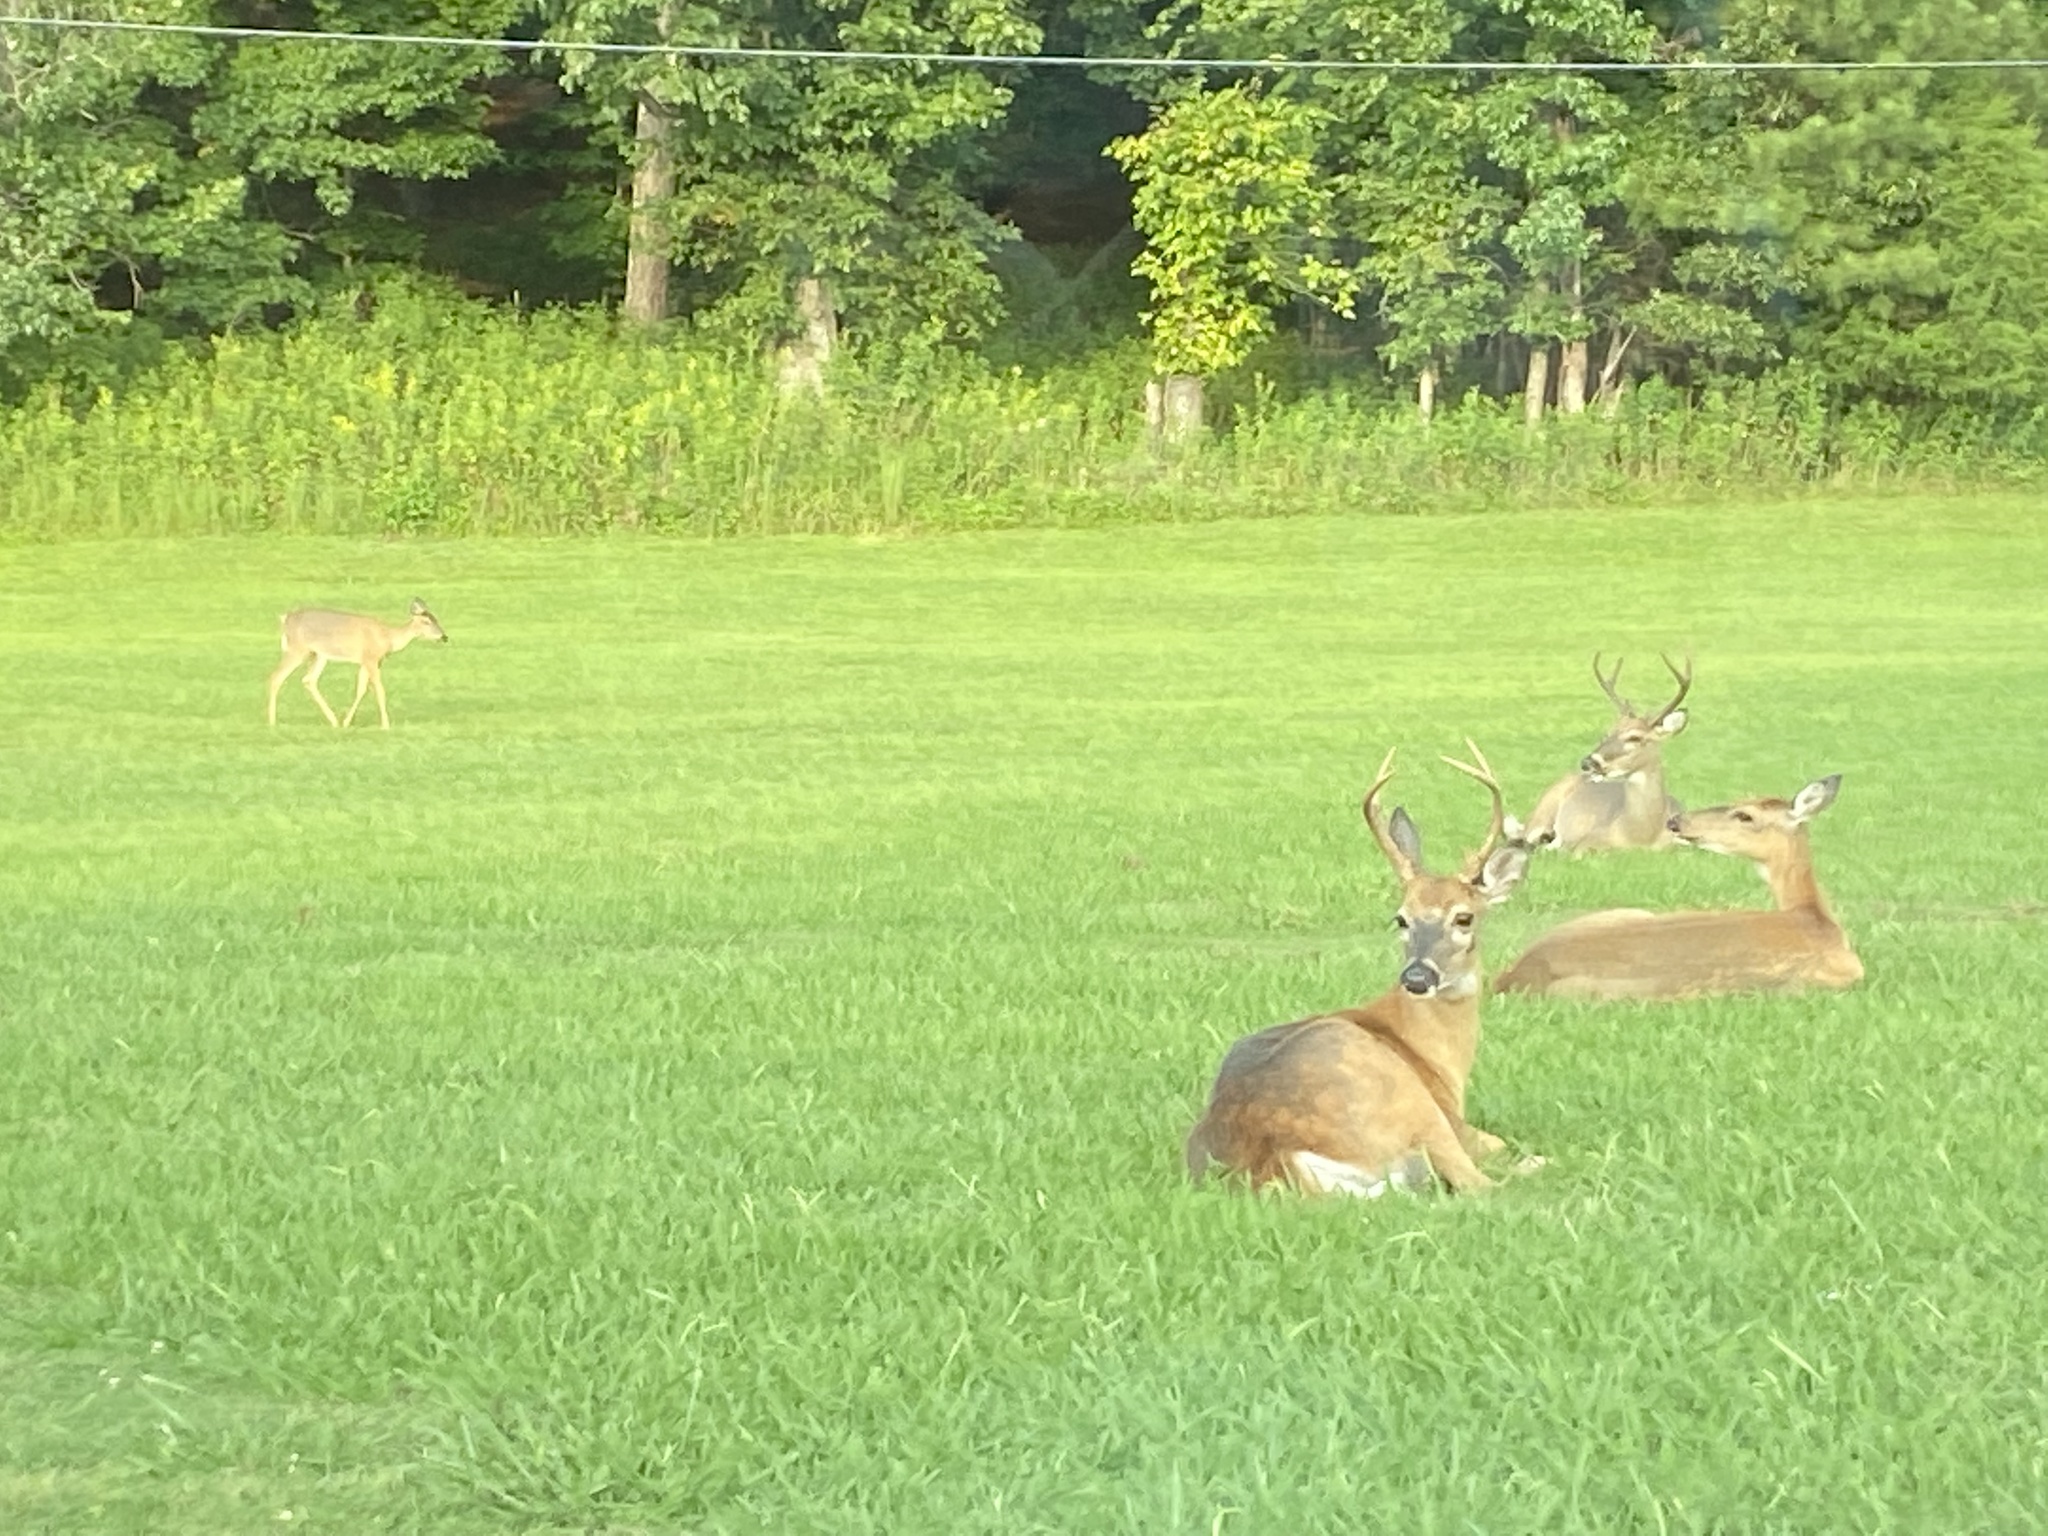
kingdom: Animalia
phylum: Chordata
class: Mammalia
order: Artiodactyla
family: Cervidae
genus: Odocoileus
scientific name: Odocoileus virginianus
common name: White-tailed deer
